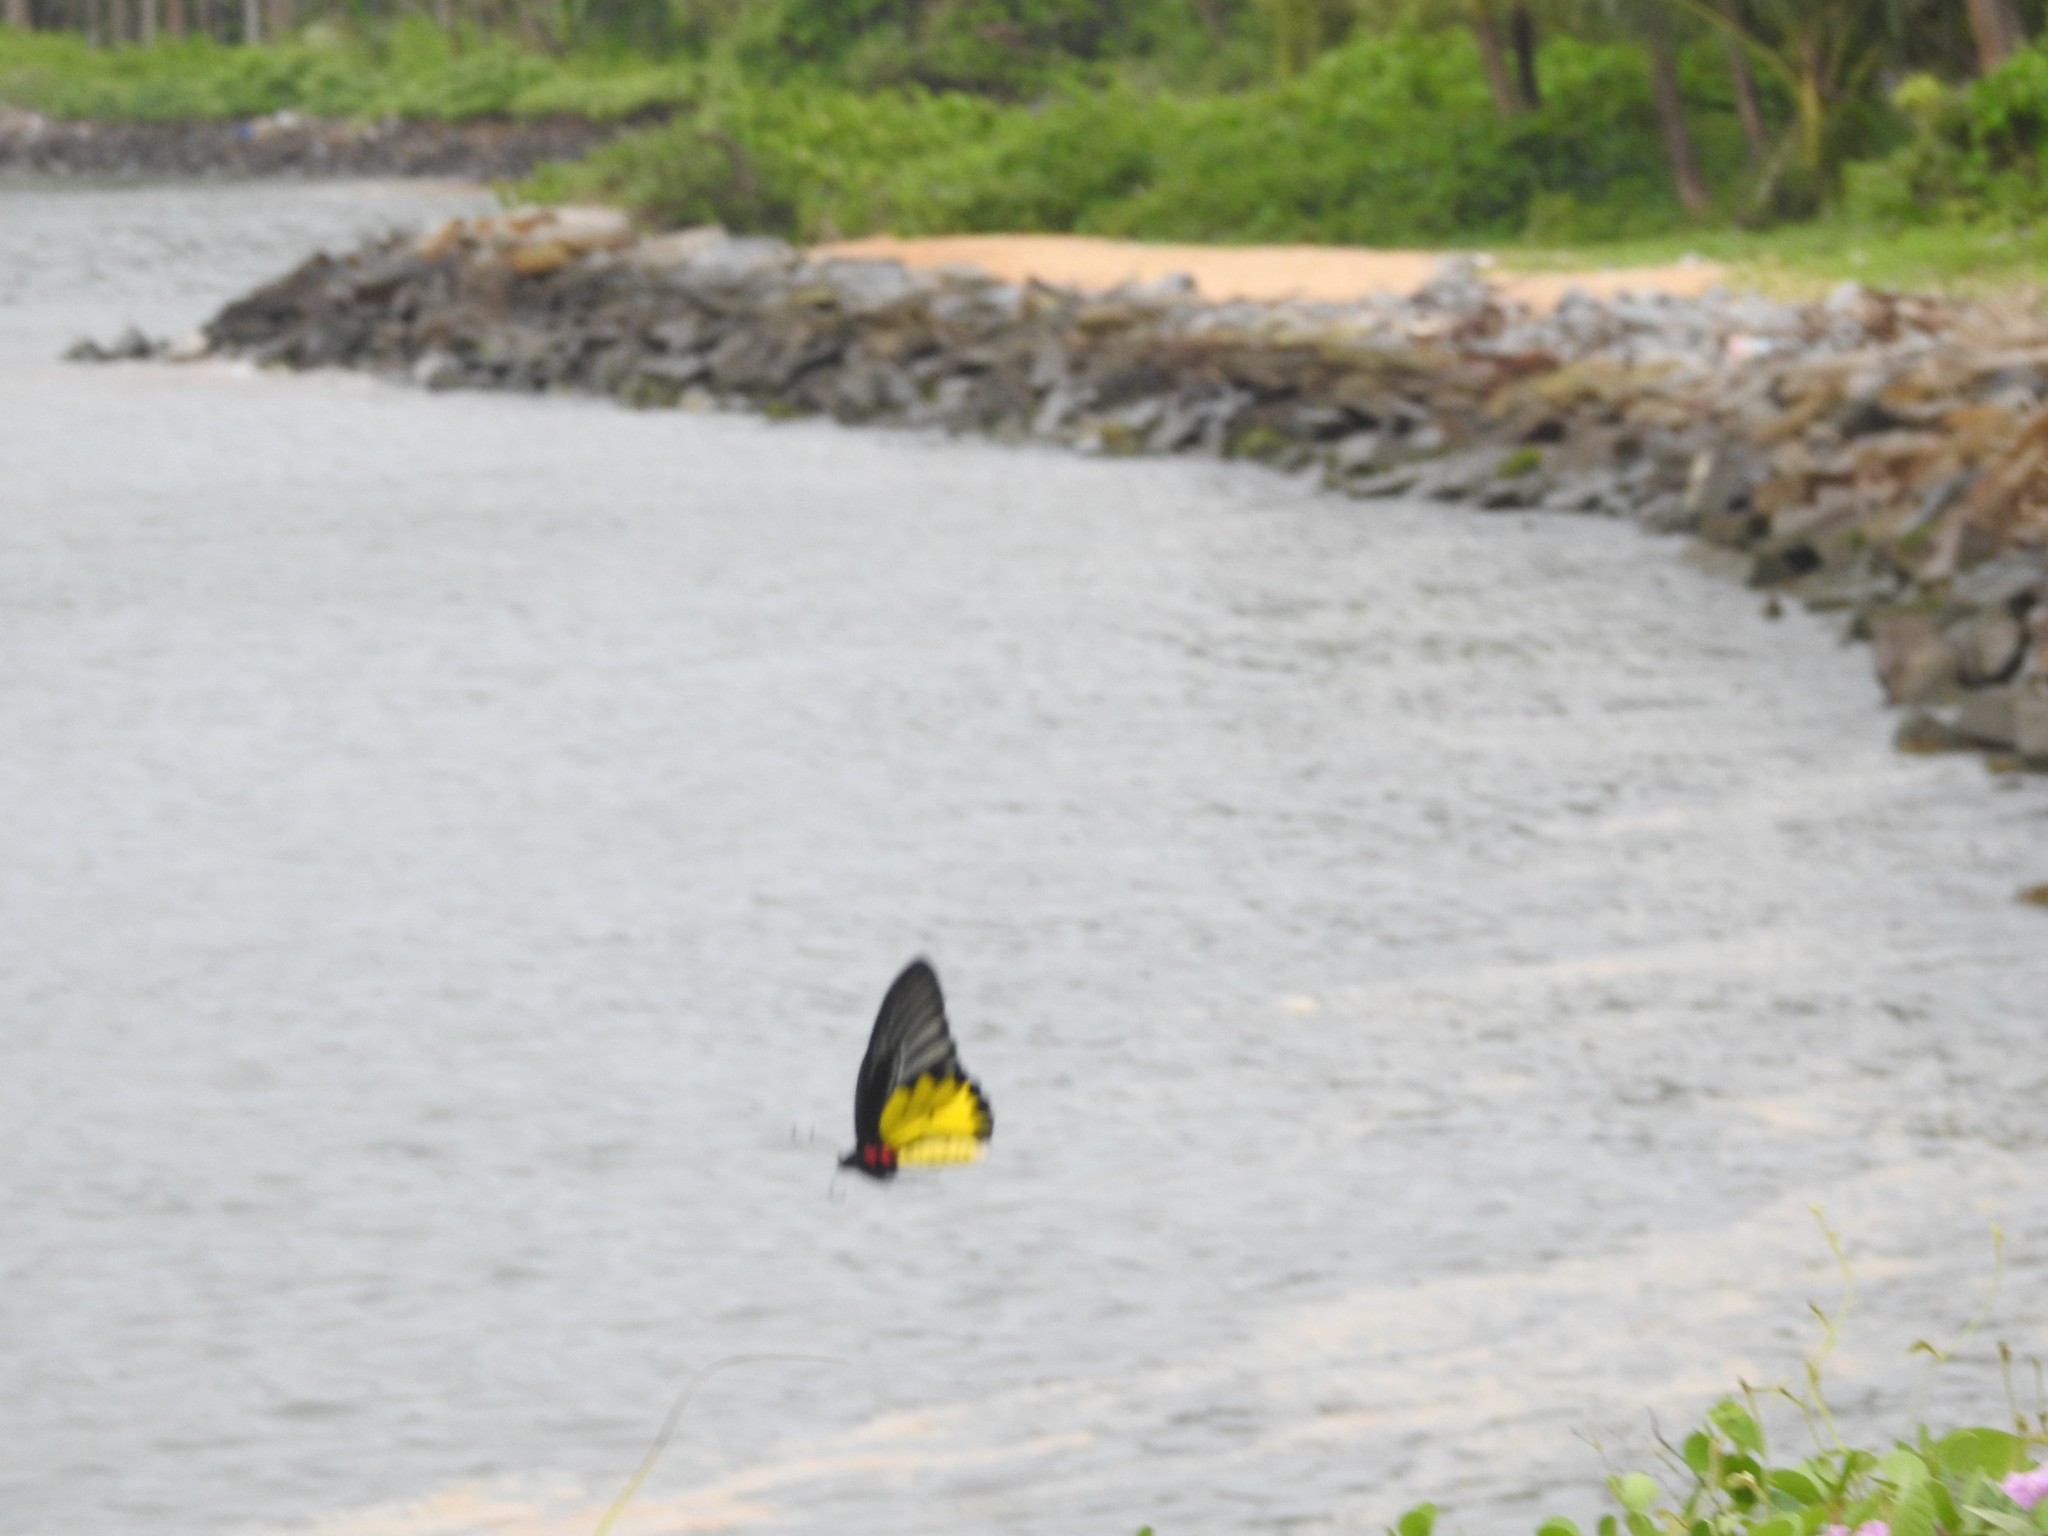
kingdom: Animalia
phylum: Arthropoda
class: Insecta
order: Lepidoptera
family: Papilionidae
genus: Troides
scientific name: Troides minos
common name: Malabar birdwing
